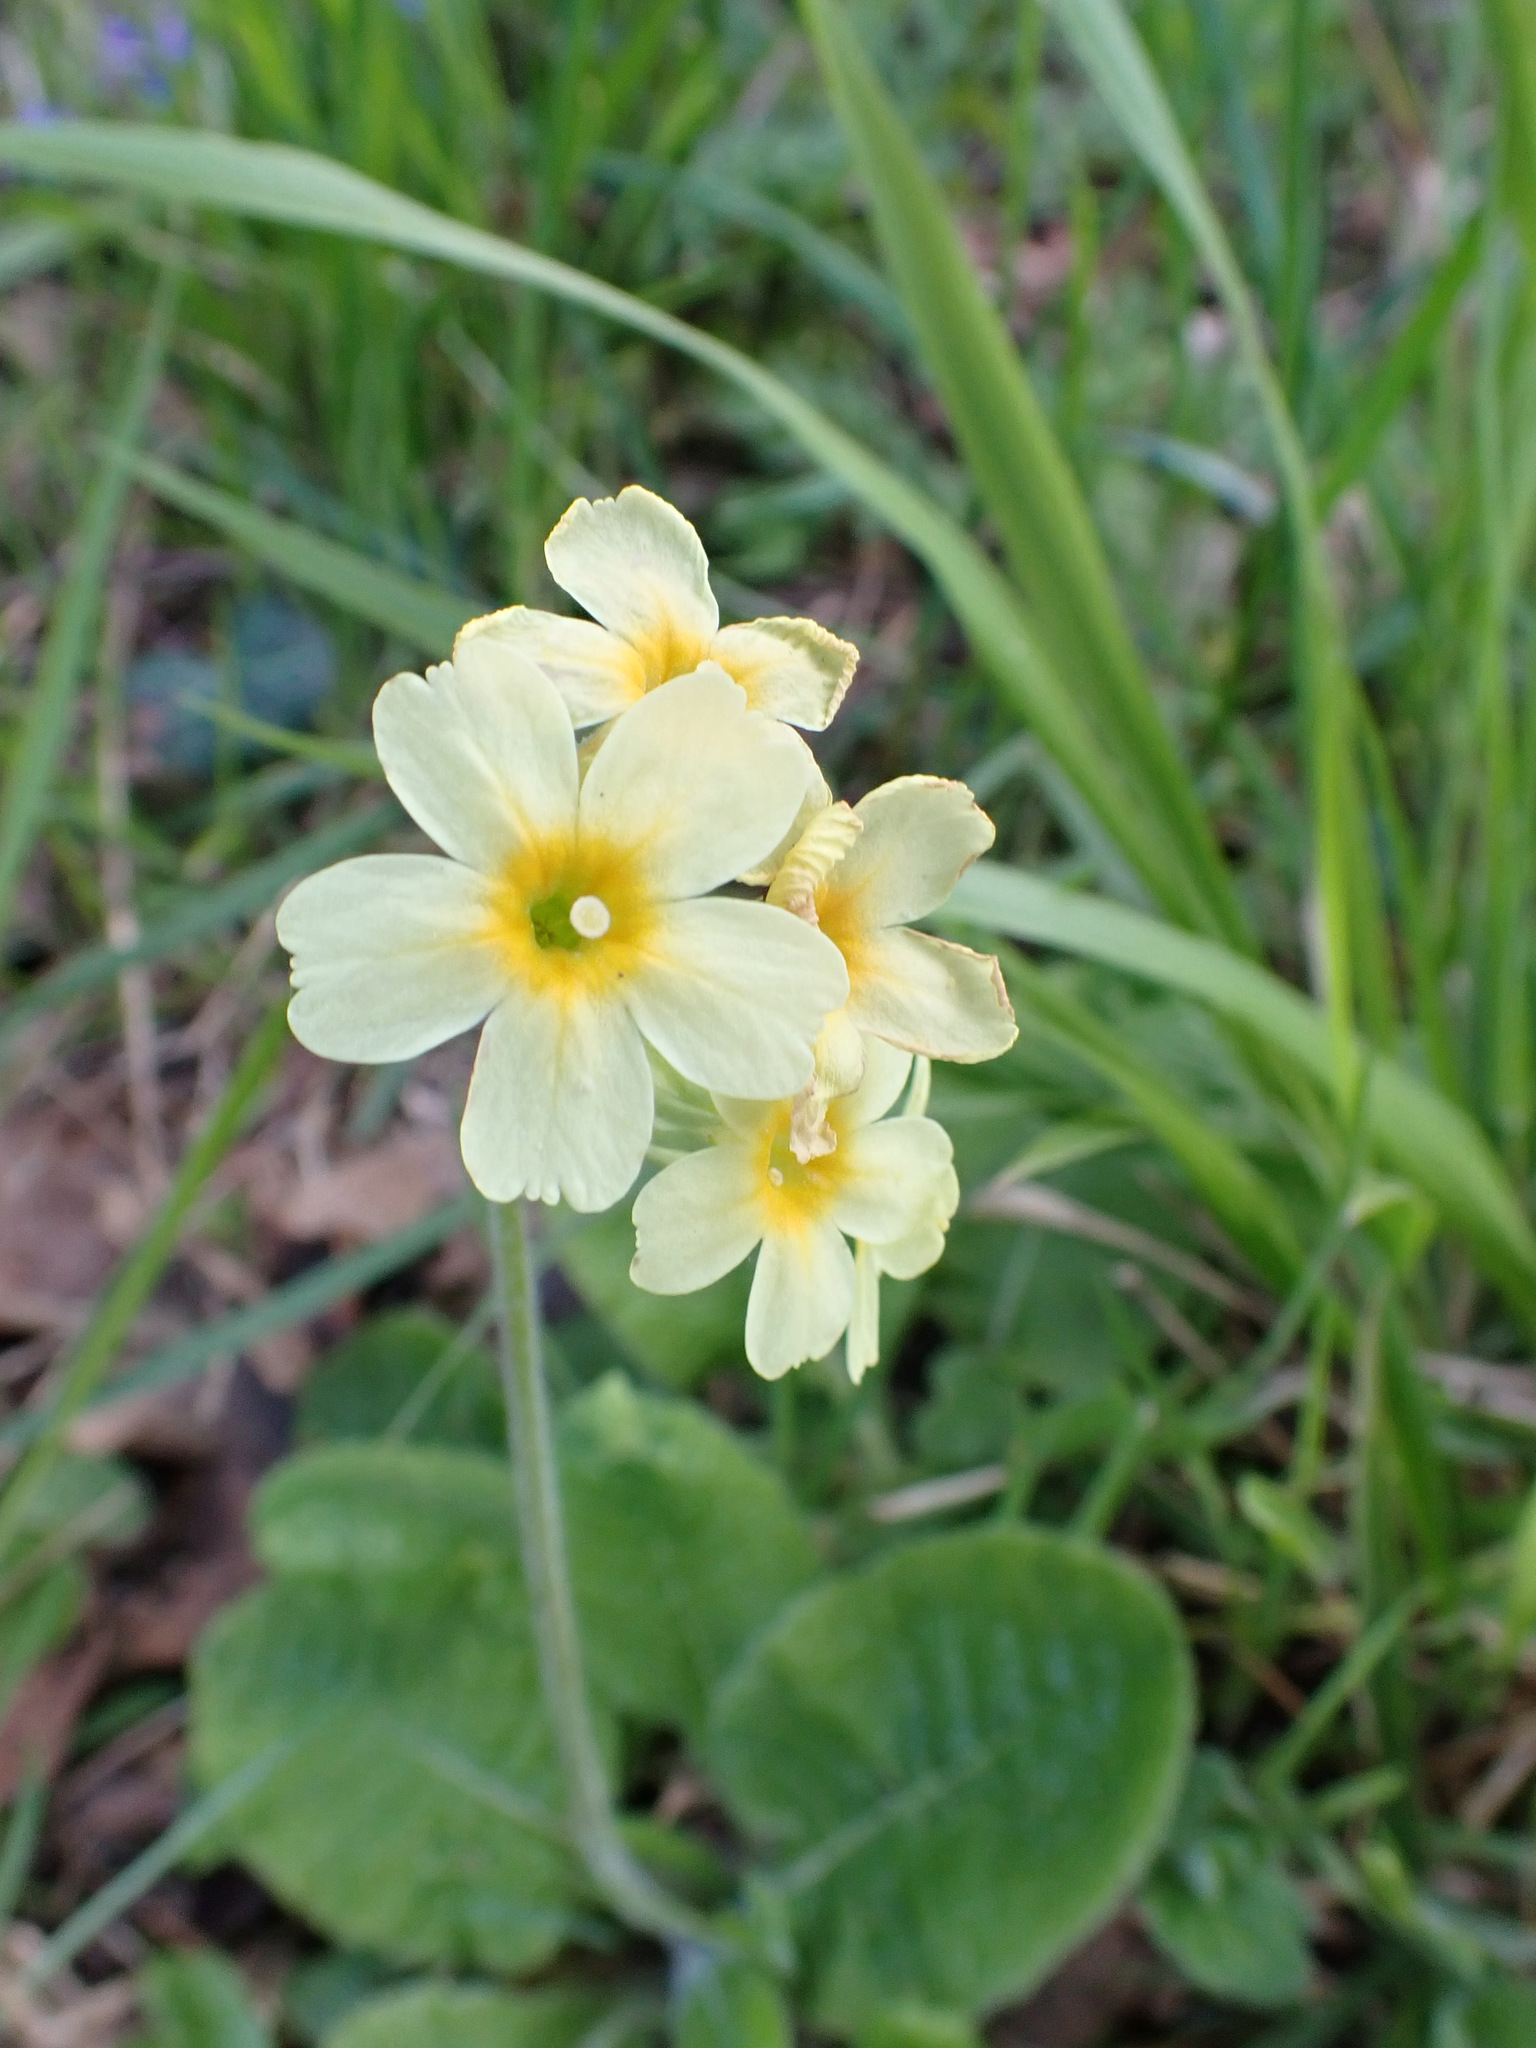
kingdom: Plantae
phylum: Tracheophyta
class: Magnoliopsida
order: Ericales
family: Primulaceae
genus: Primula
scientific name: Primula elatior
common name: Oxlip
